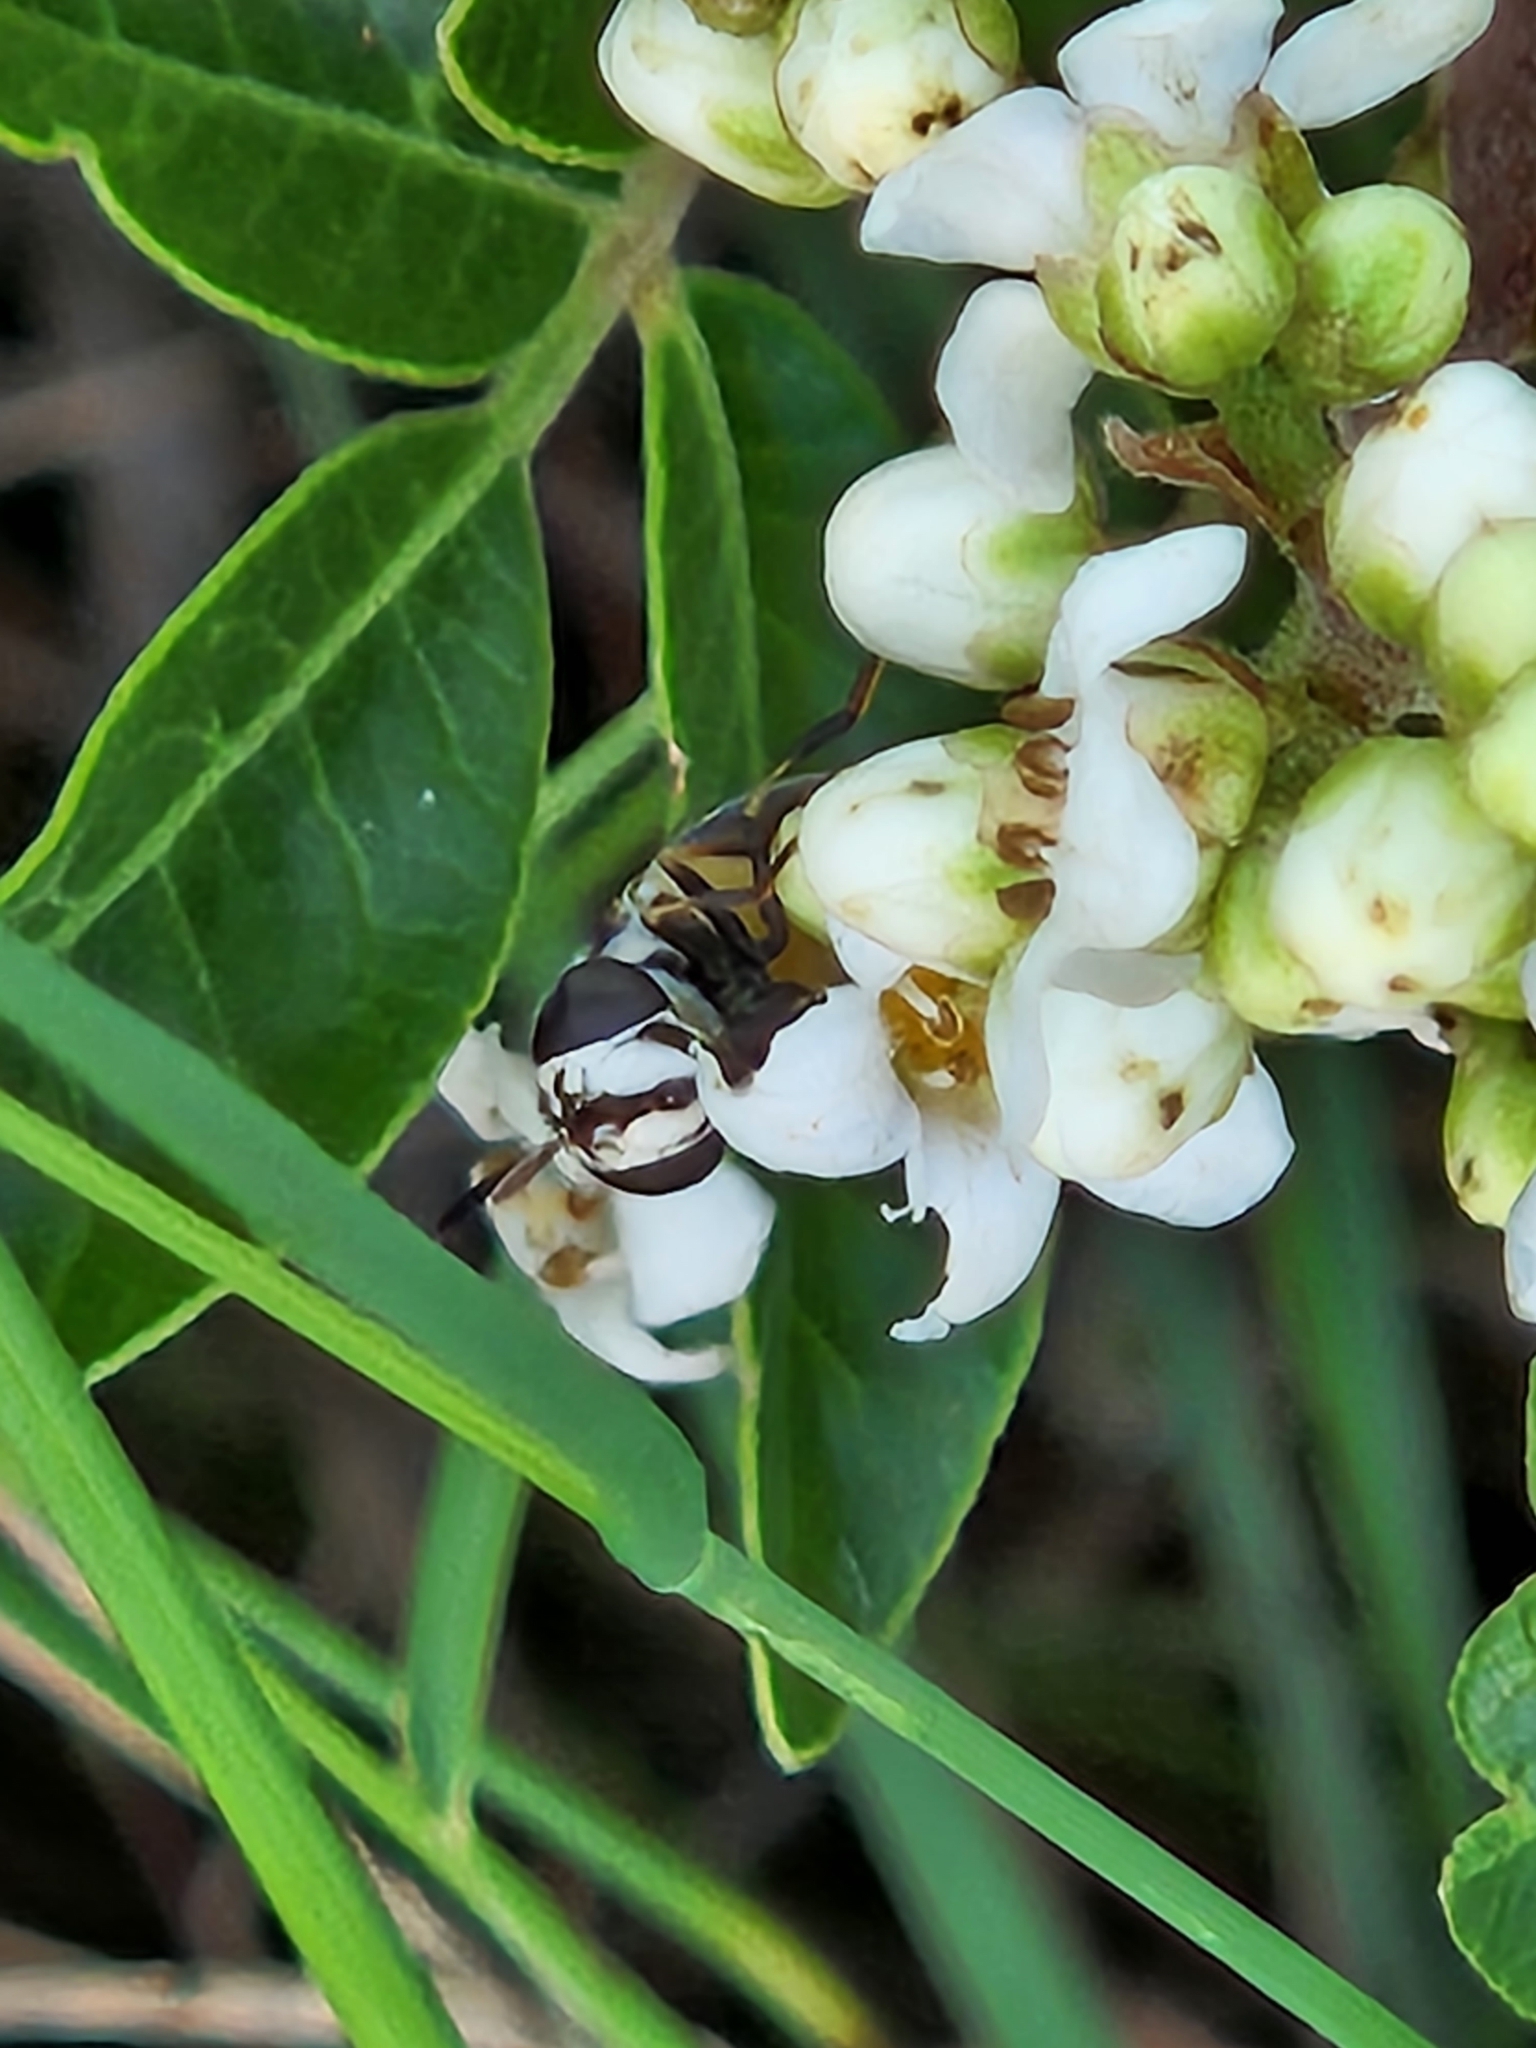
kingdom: Animalia
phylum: Arthropoda
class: Insecta
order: Diptera
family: Syrphidae
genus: Copestylum
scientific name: Copestylum caudatum
